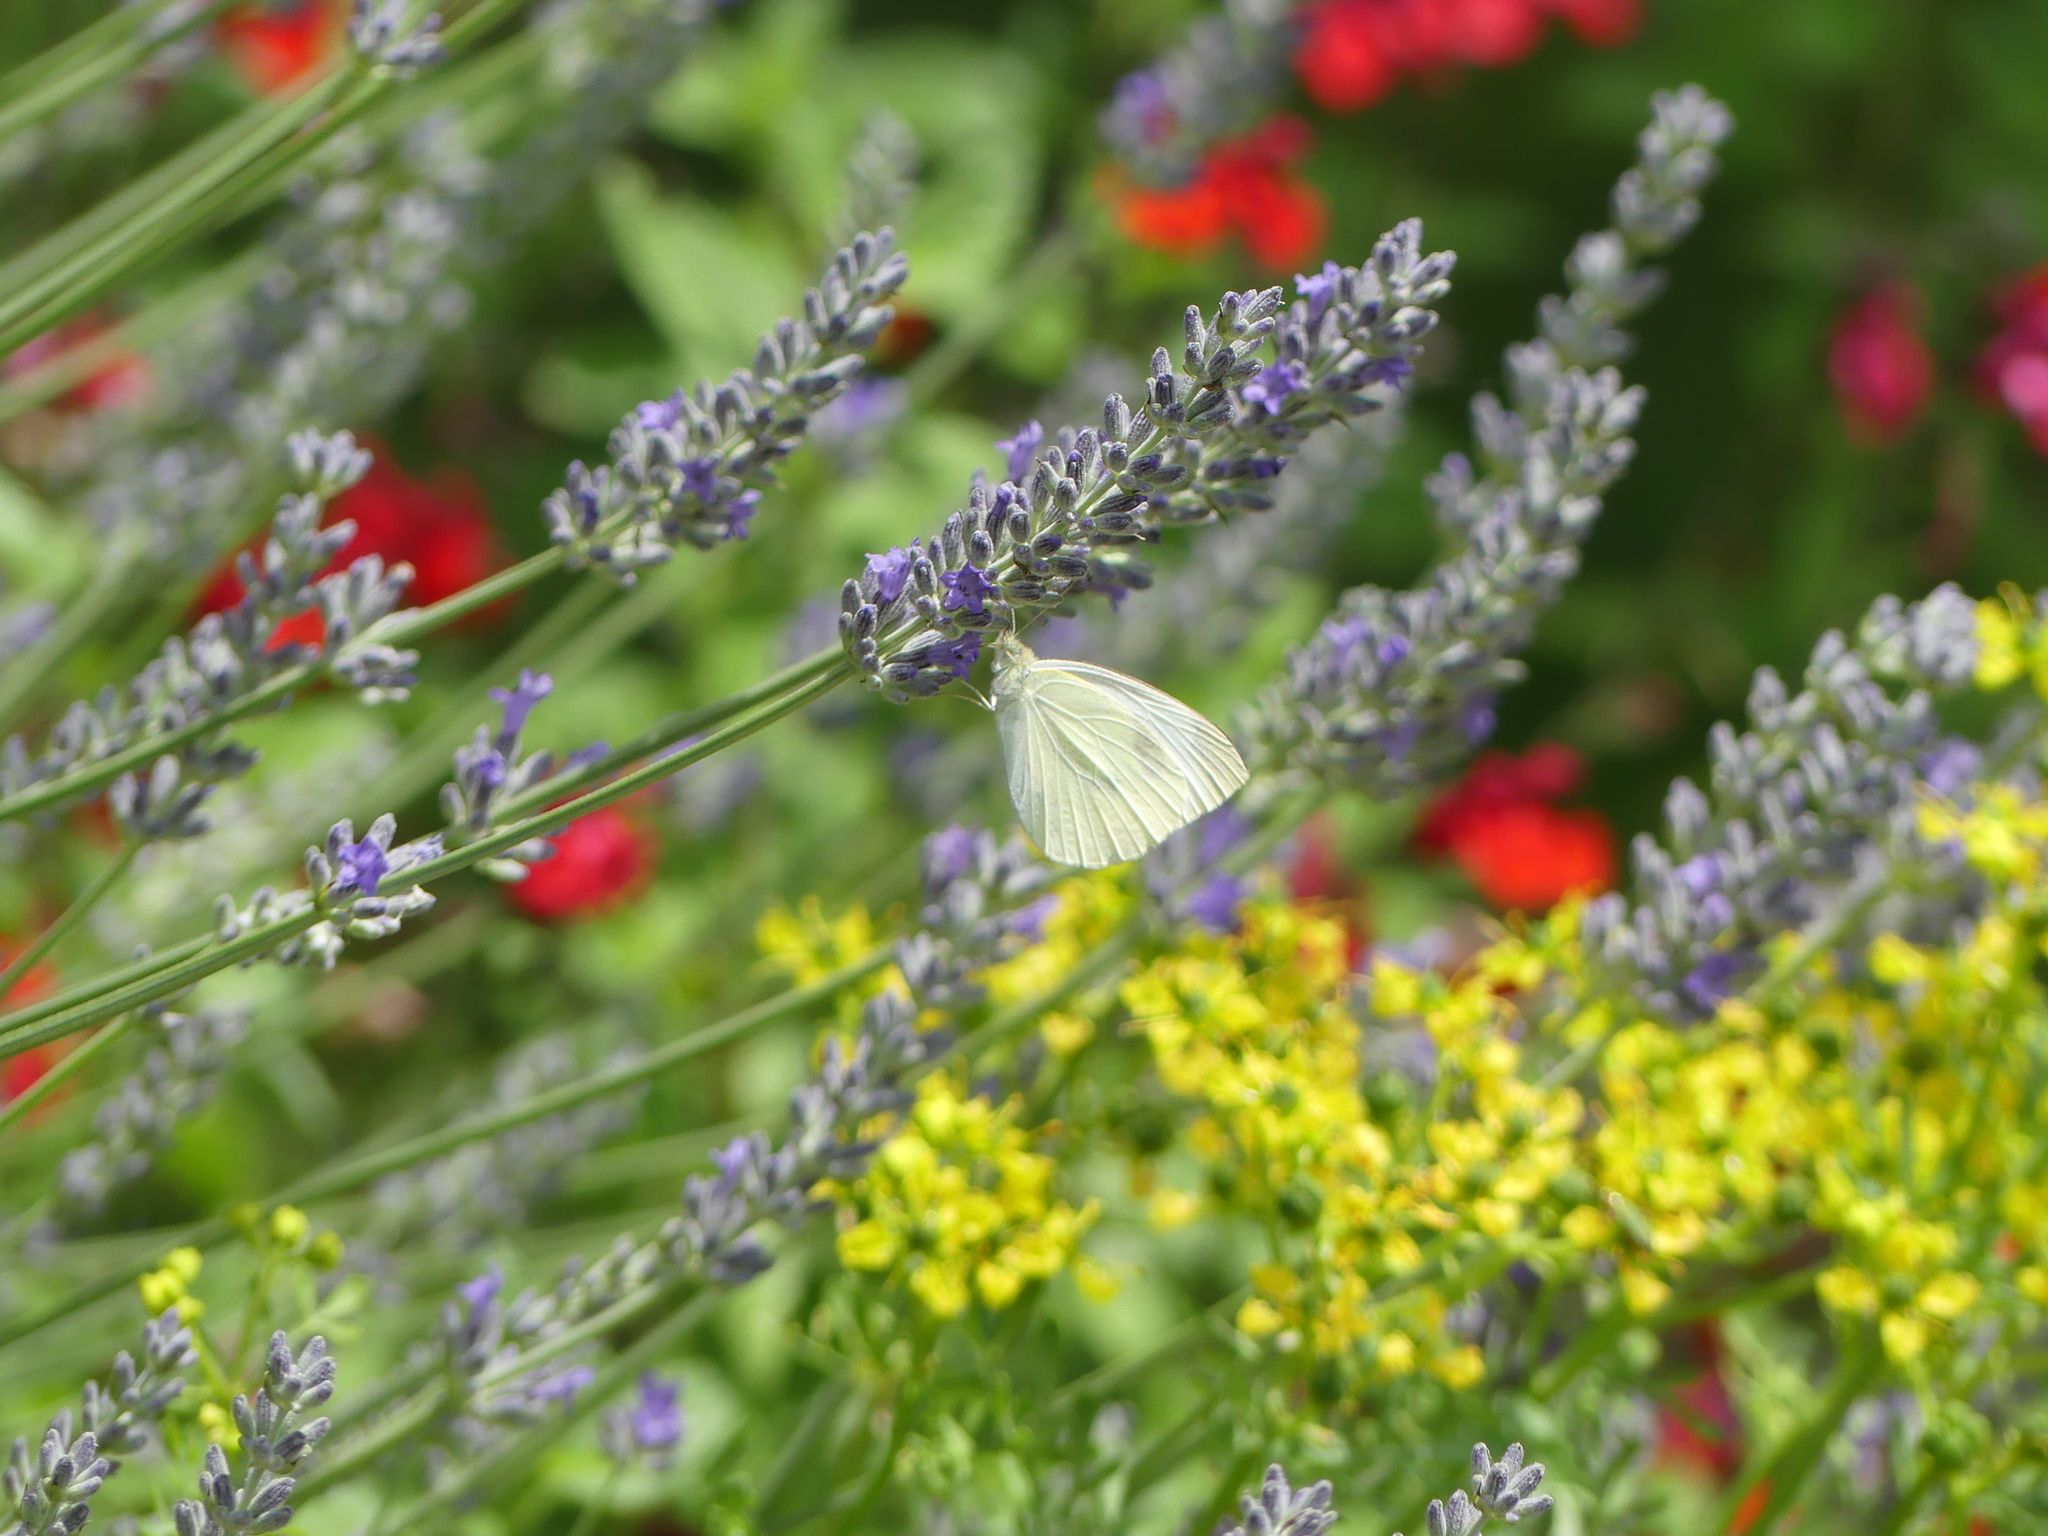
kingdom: Animalia
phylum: Arthropoda
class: Insecta
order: Lepidoptera
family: Pieridae
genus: Pieris
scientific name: Pieris rapae
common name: Small white
